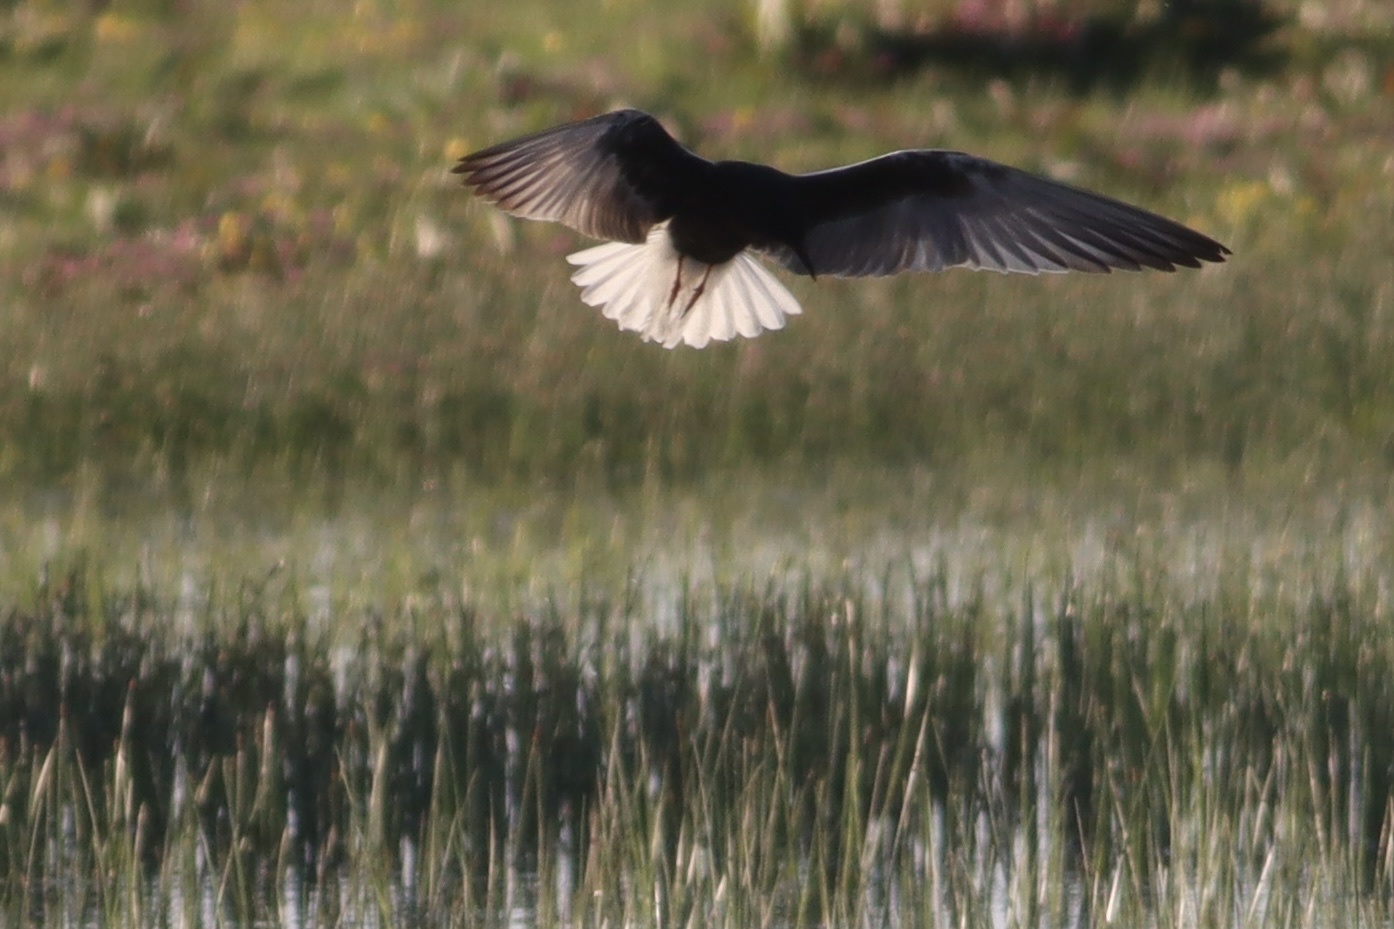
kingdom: Animalia
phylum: Chordata
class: Aves
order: Charadriiformes
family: Laridae
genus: Chlidonias
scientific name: Chlidonias leucopterus
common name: White-winged tern
